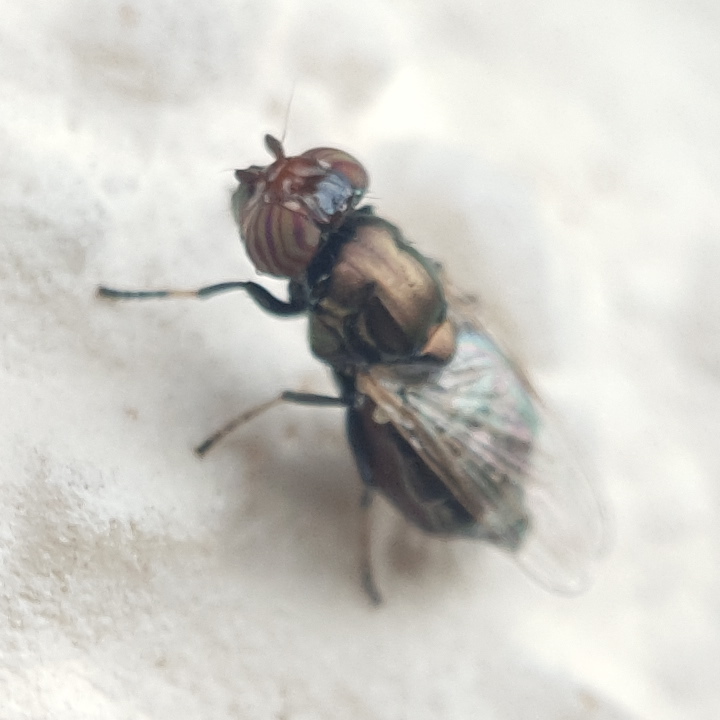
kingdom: Animalia
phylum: Arthropoda
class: Insecta
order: Diptera
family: Ulidiidae
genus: Physiphora
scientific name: Physiphora alceae
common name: Picture-winged fly
